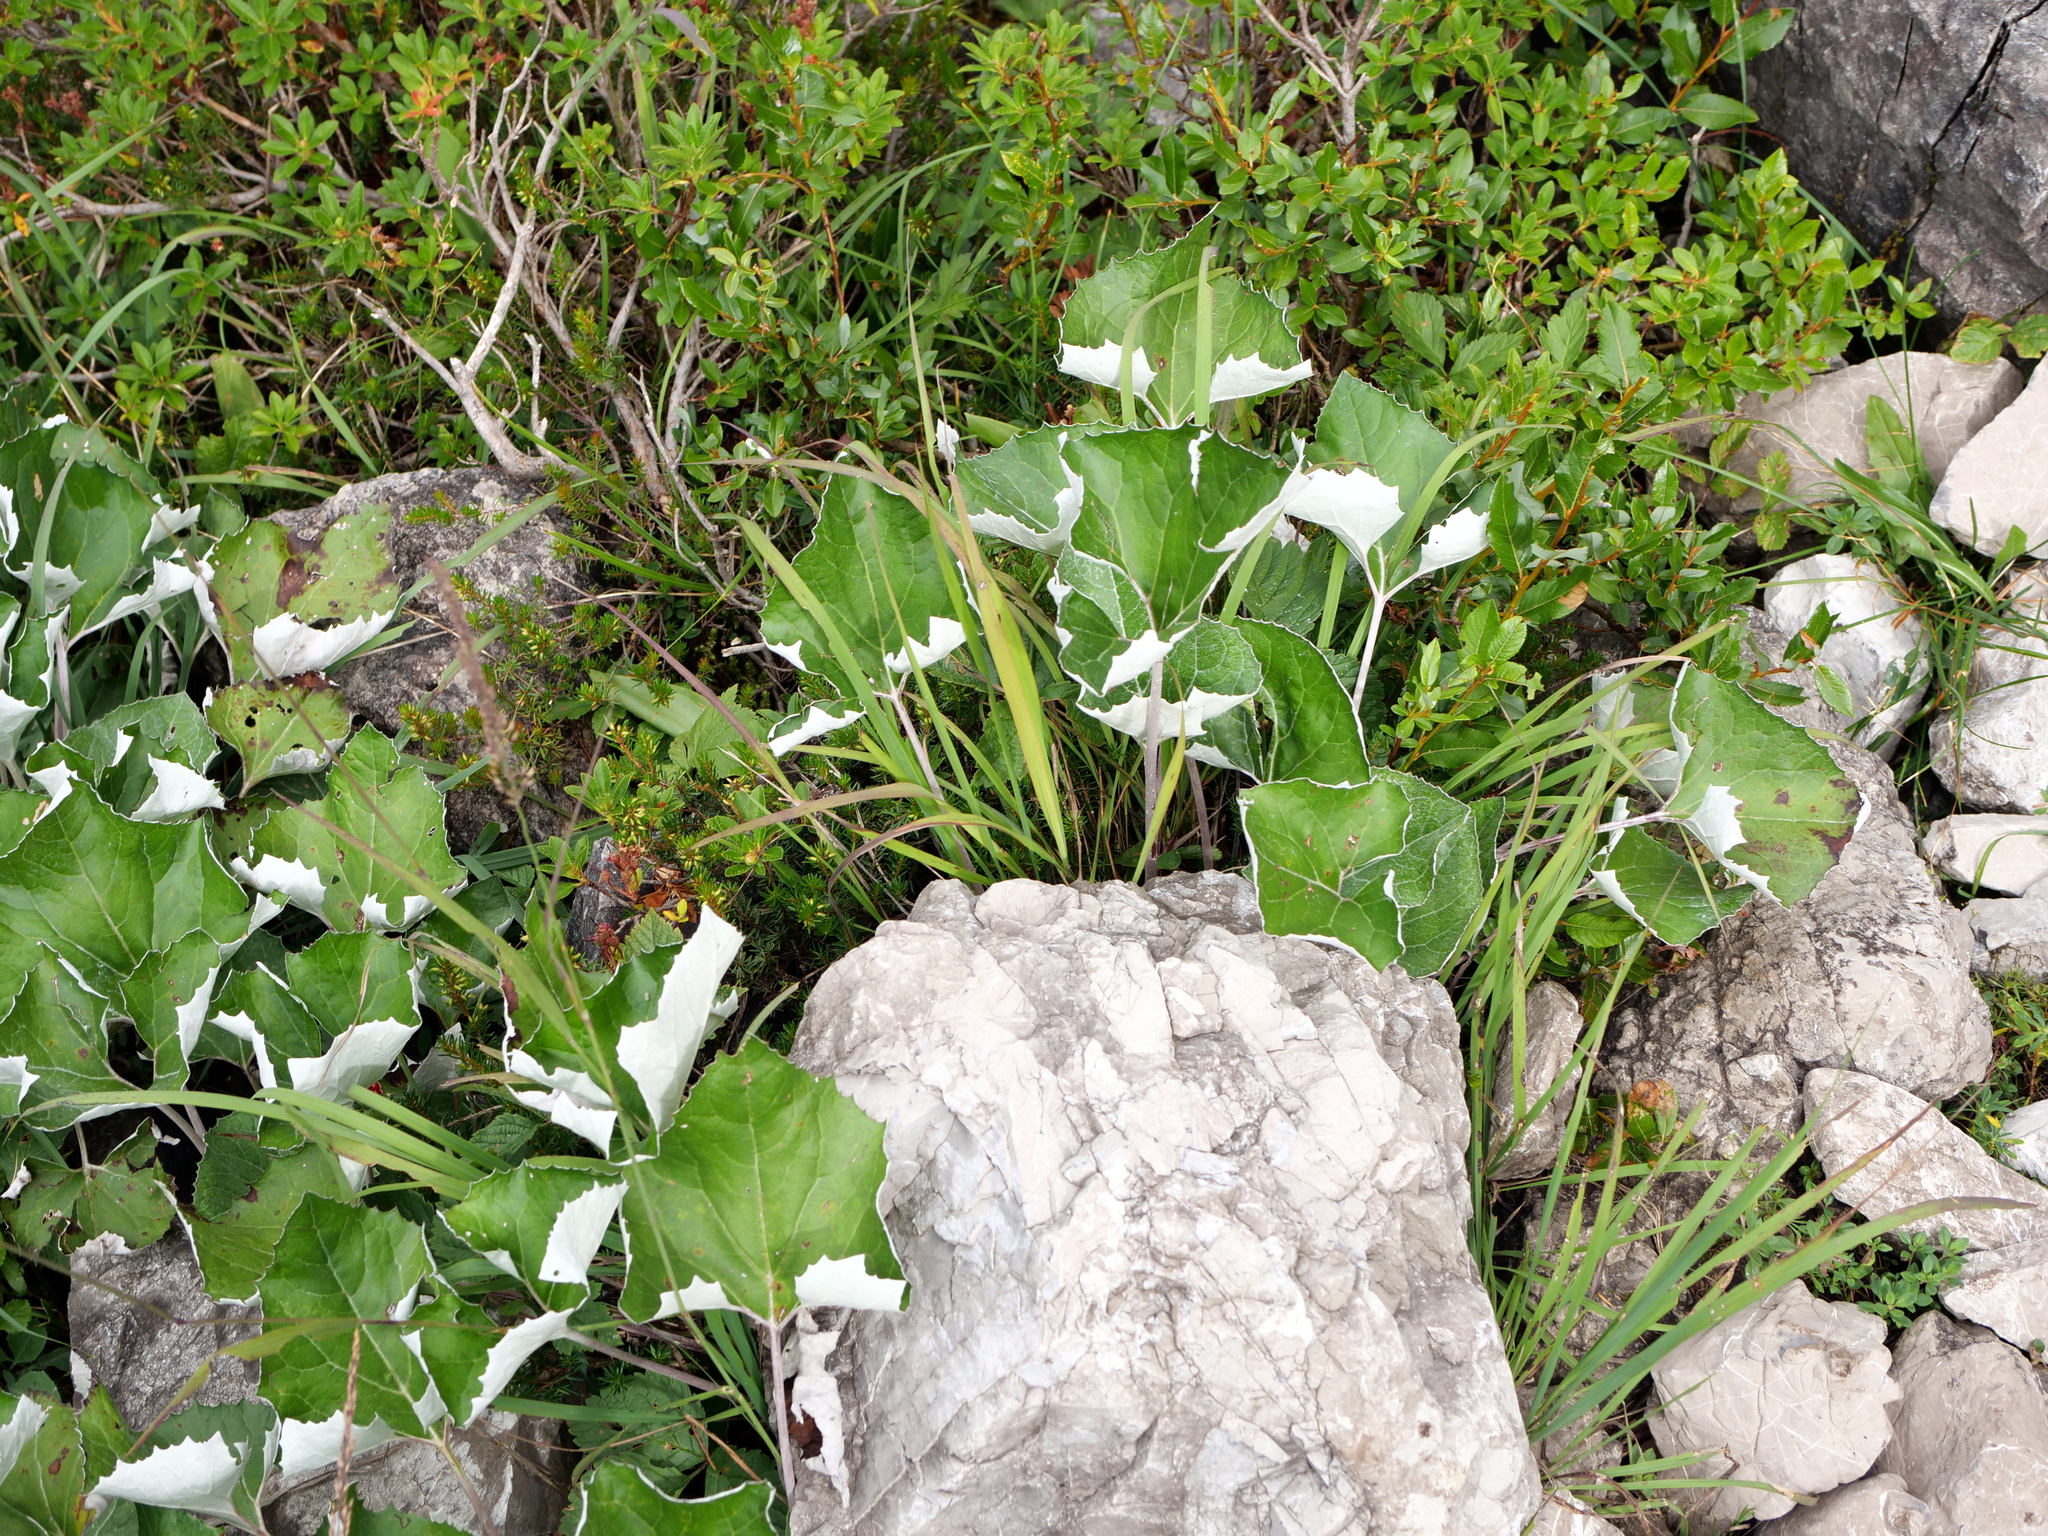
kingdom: Plantae
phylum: Tracheophyta
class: Magnoliopsida
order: Asterales
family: Asteraceae
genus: Petasites
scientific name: Petasites paradoxus
